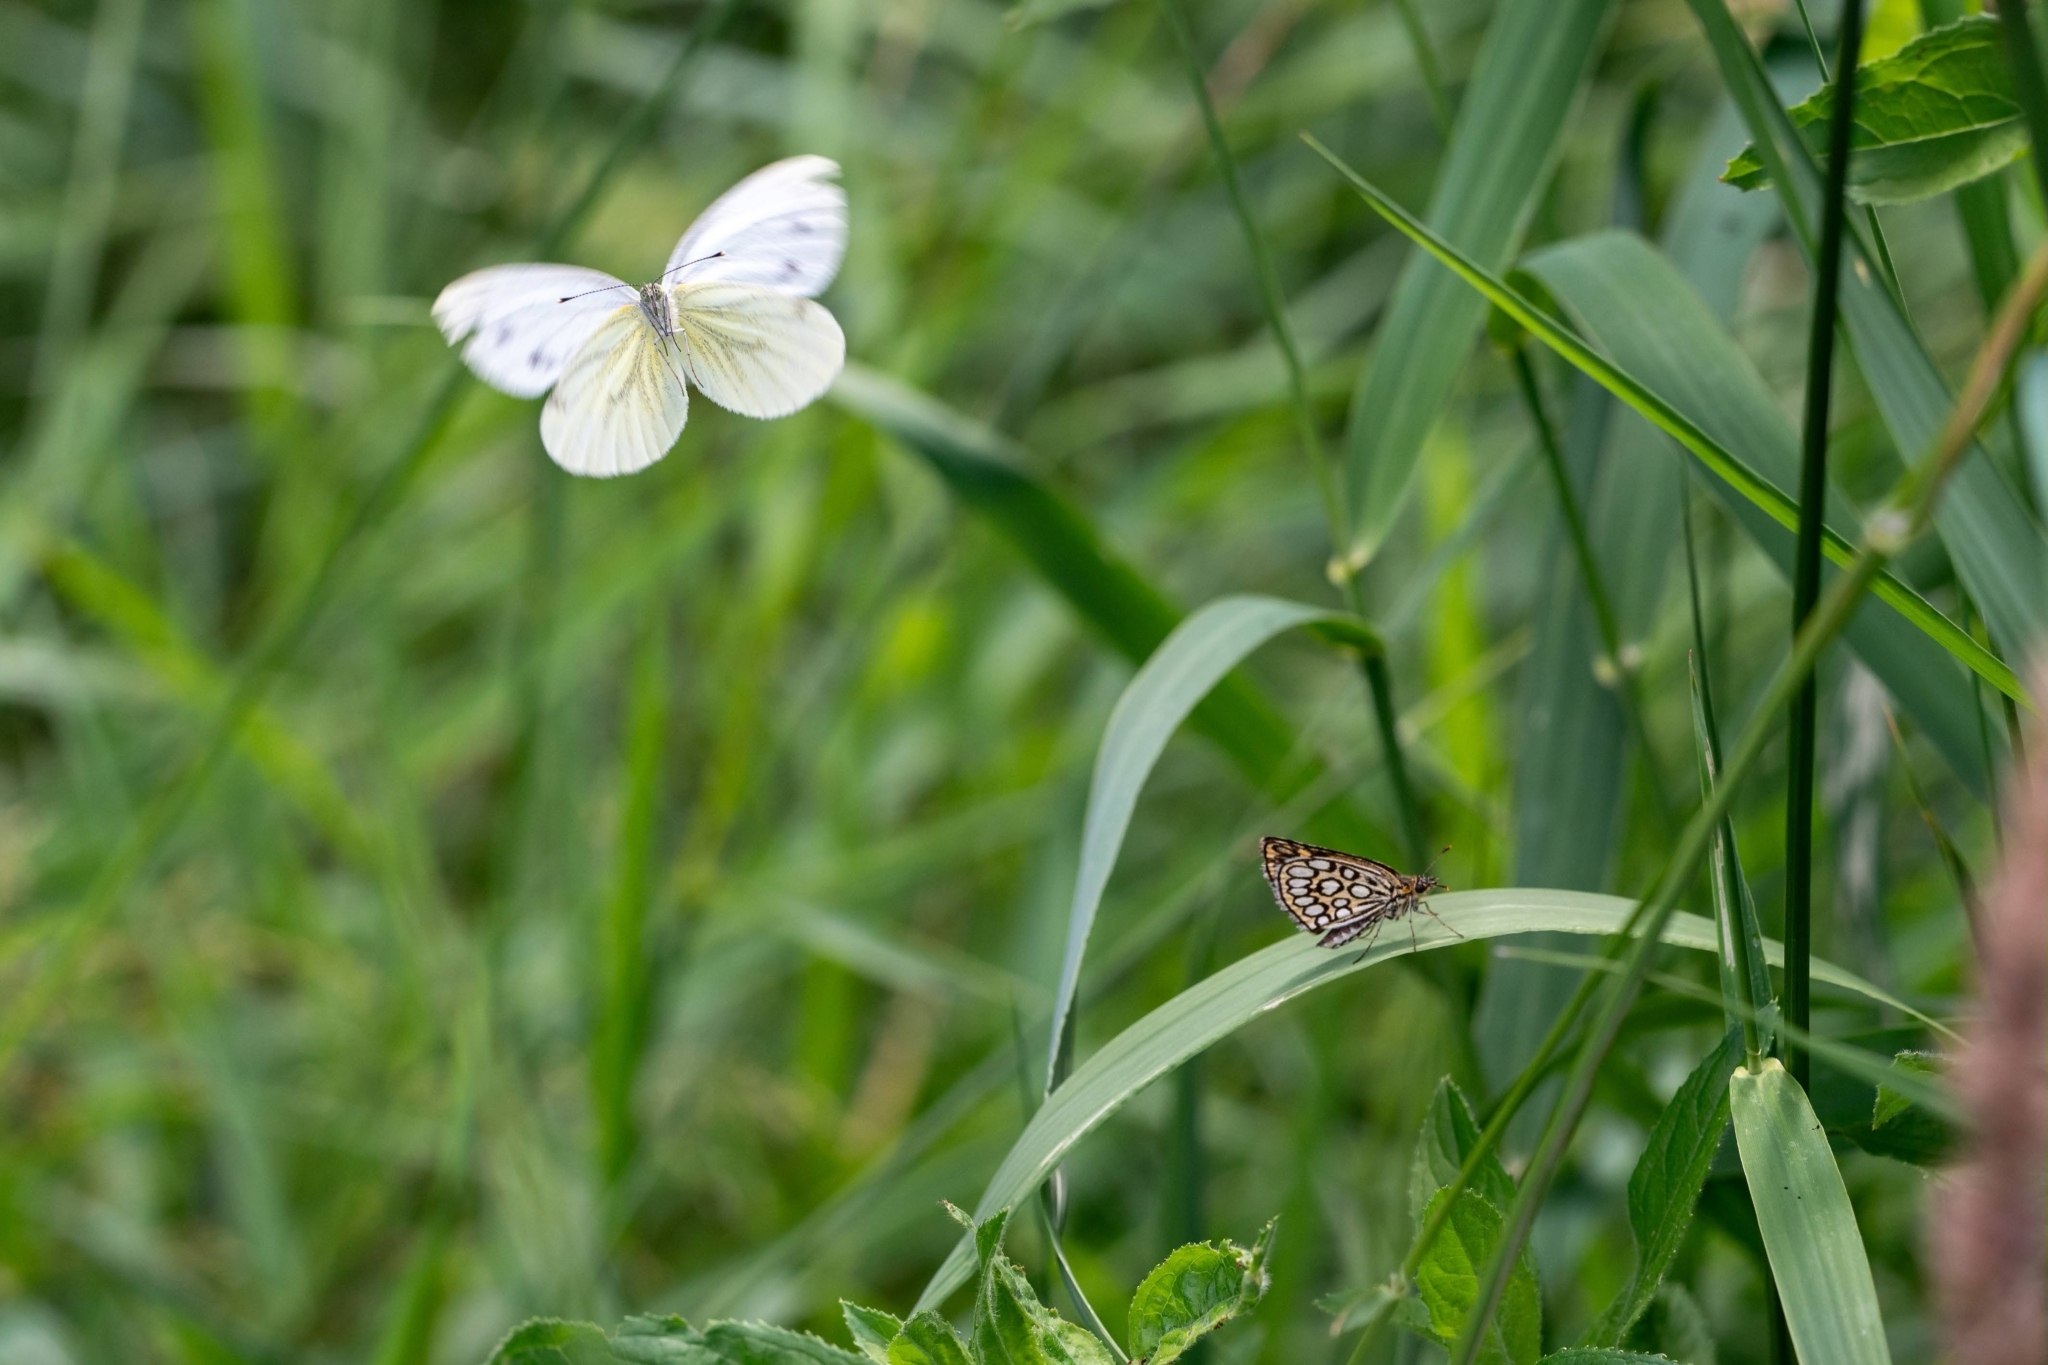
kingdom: Animalia
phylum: Arthropoda
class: Insecta
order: Lepidoptera
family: Pieridae
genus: Pieris
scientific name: Pieris napi
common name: Green-veined white
